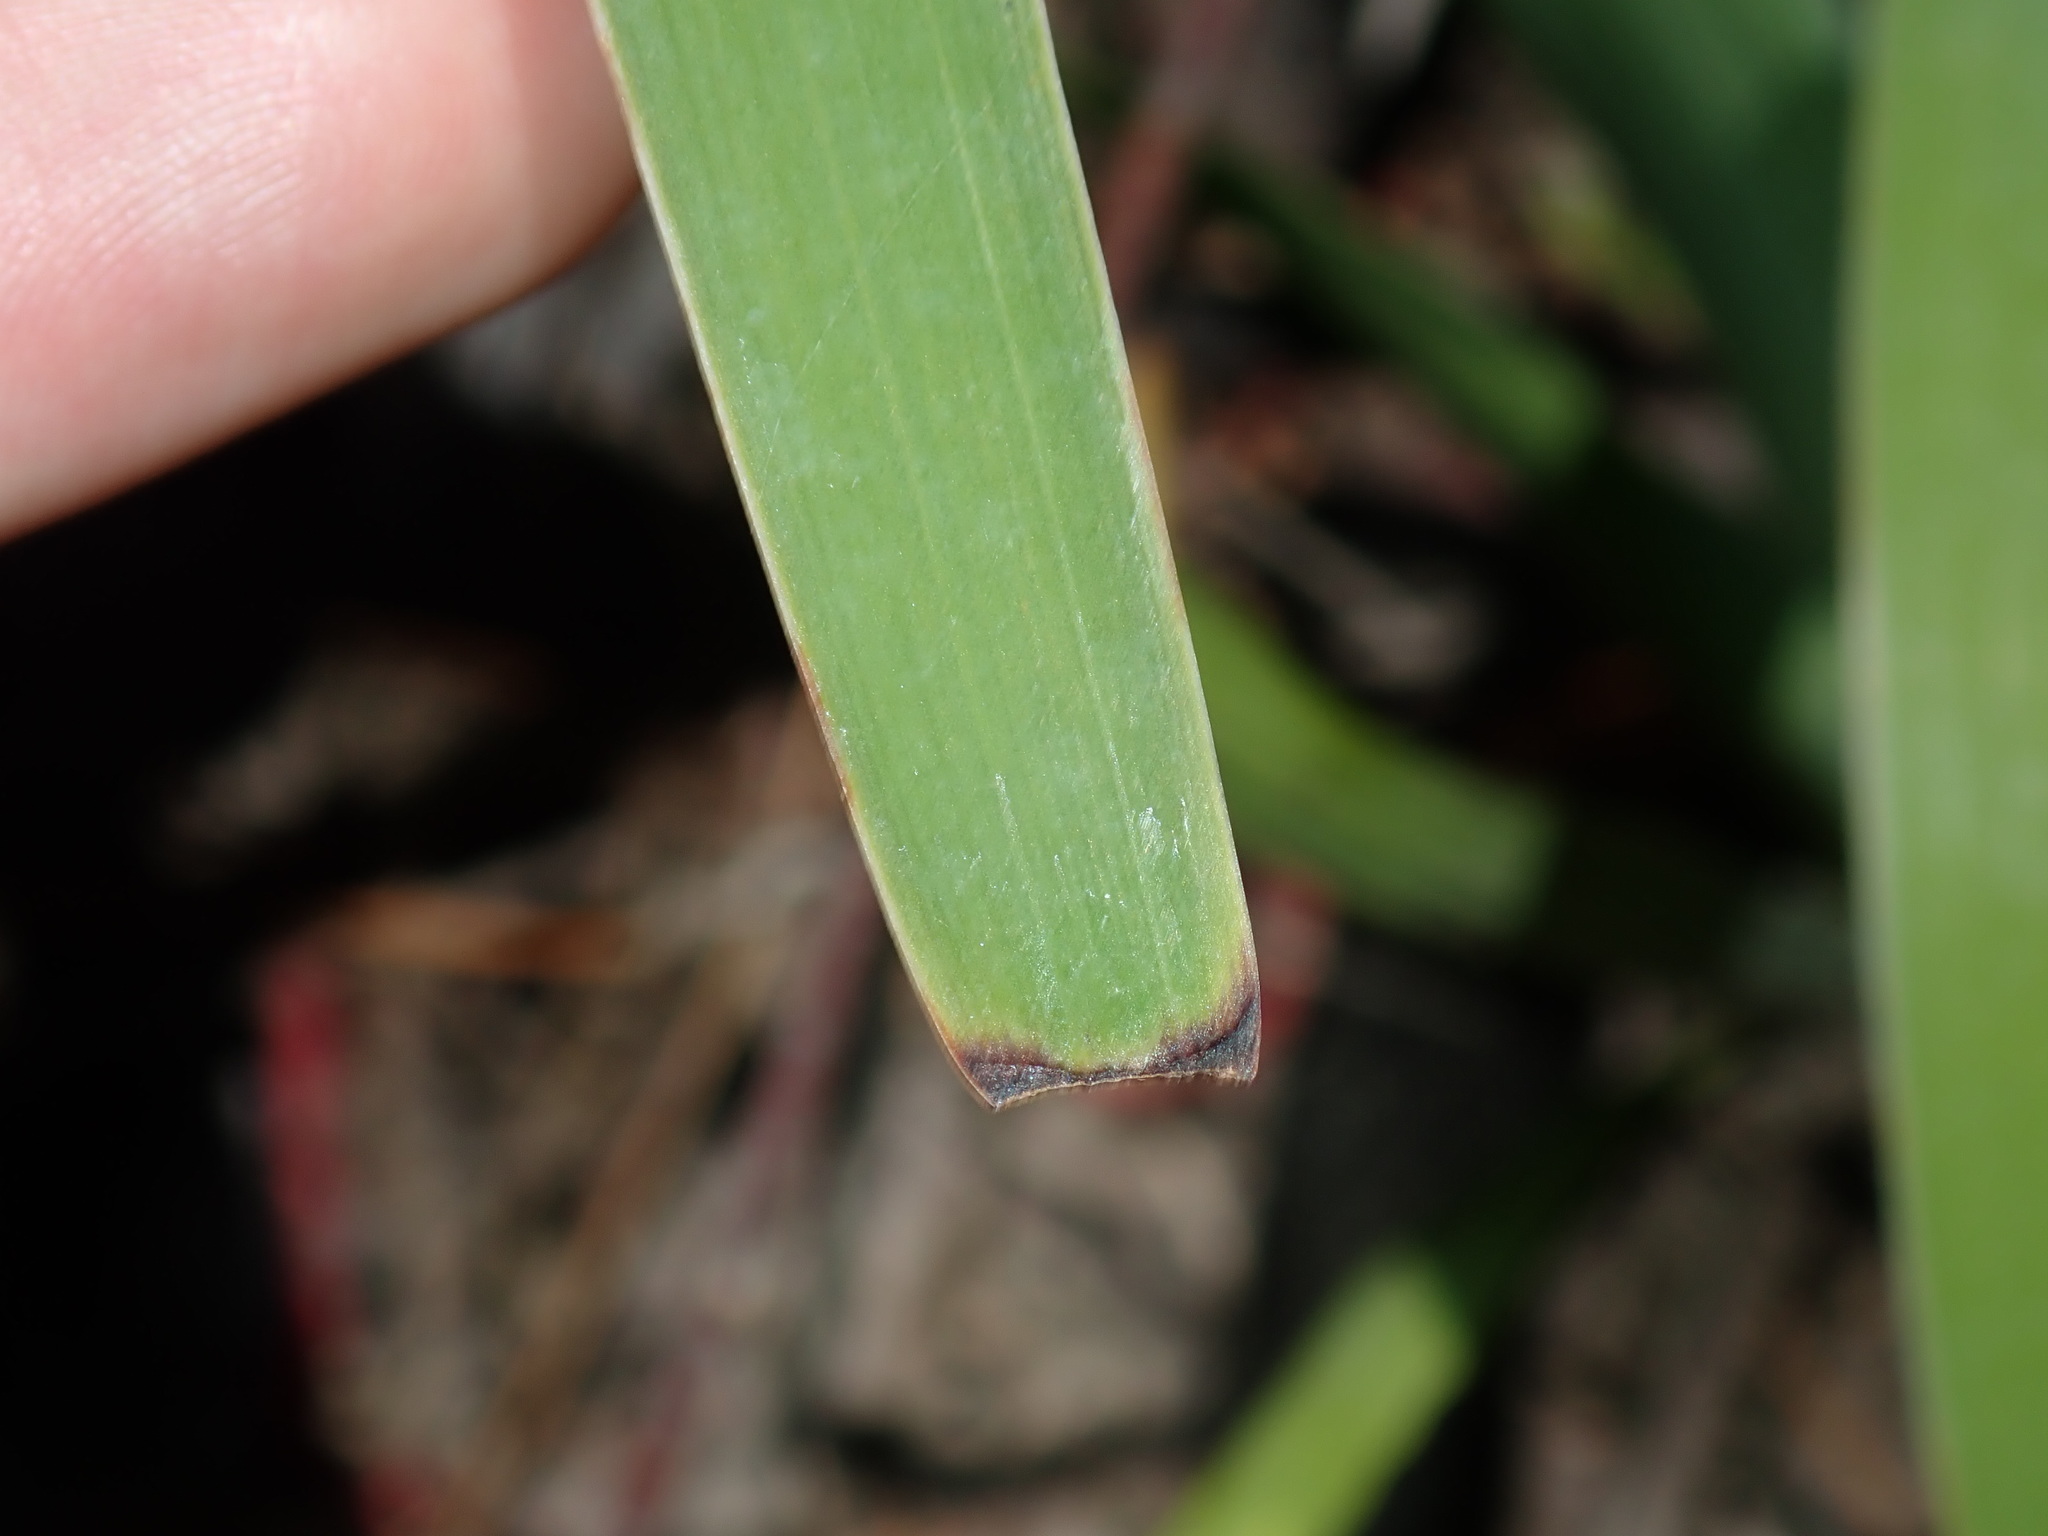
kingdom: Plantae
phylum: Tracheophyta
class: Liliopsida
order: Asparagales
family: Iridaceae
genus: Aristea
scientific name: Aristea ecklonii
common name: Blue corn-lily
